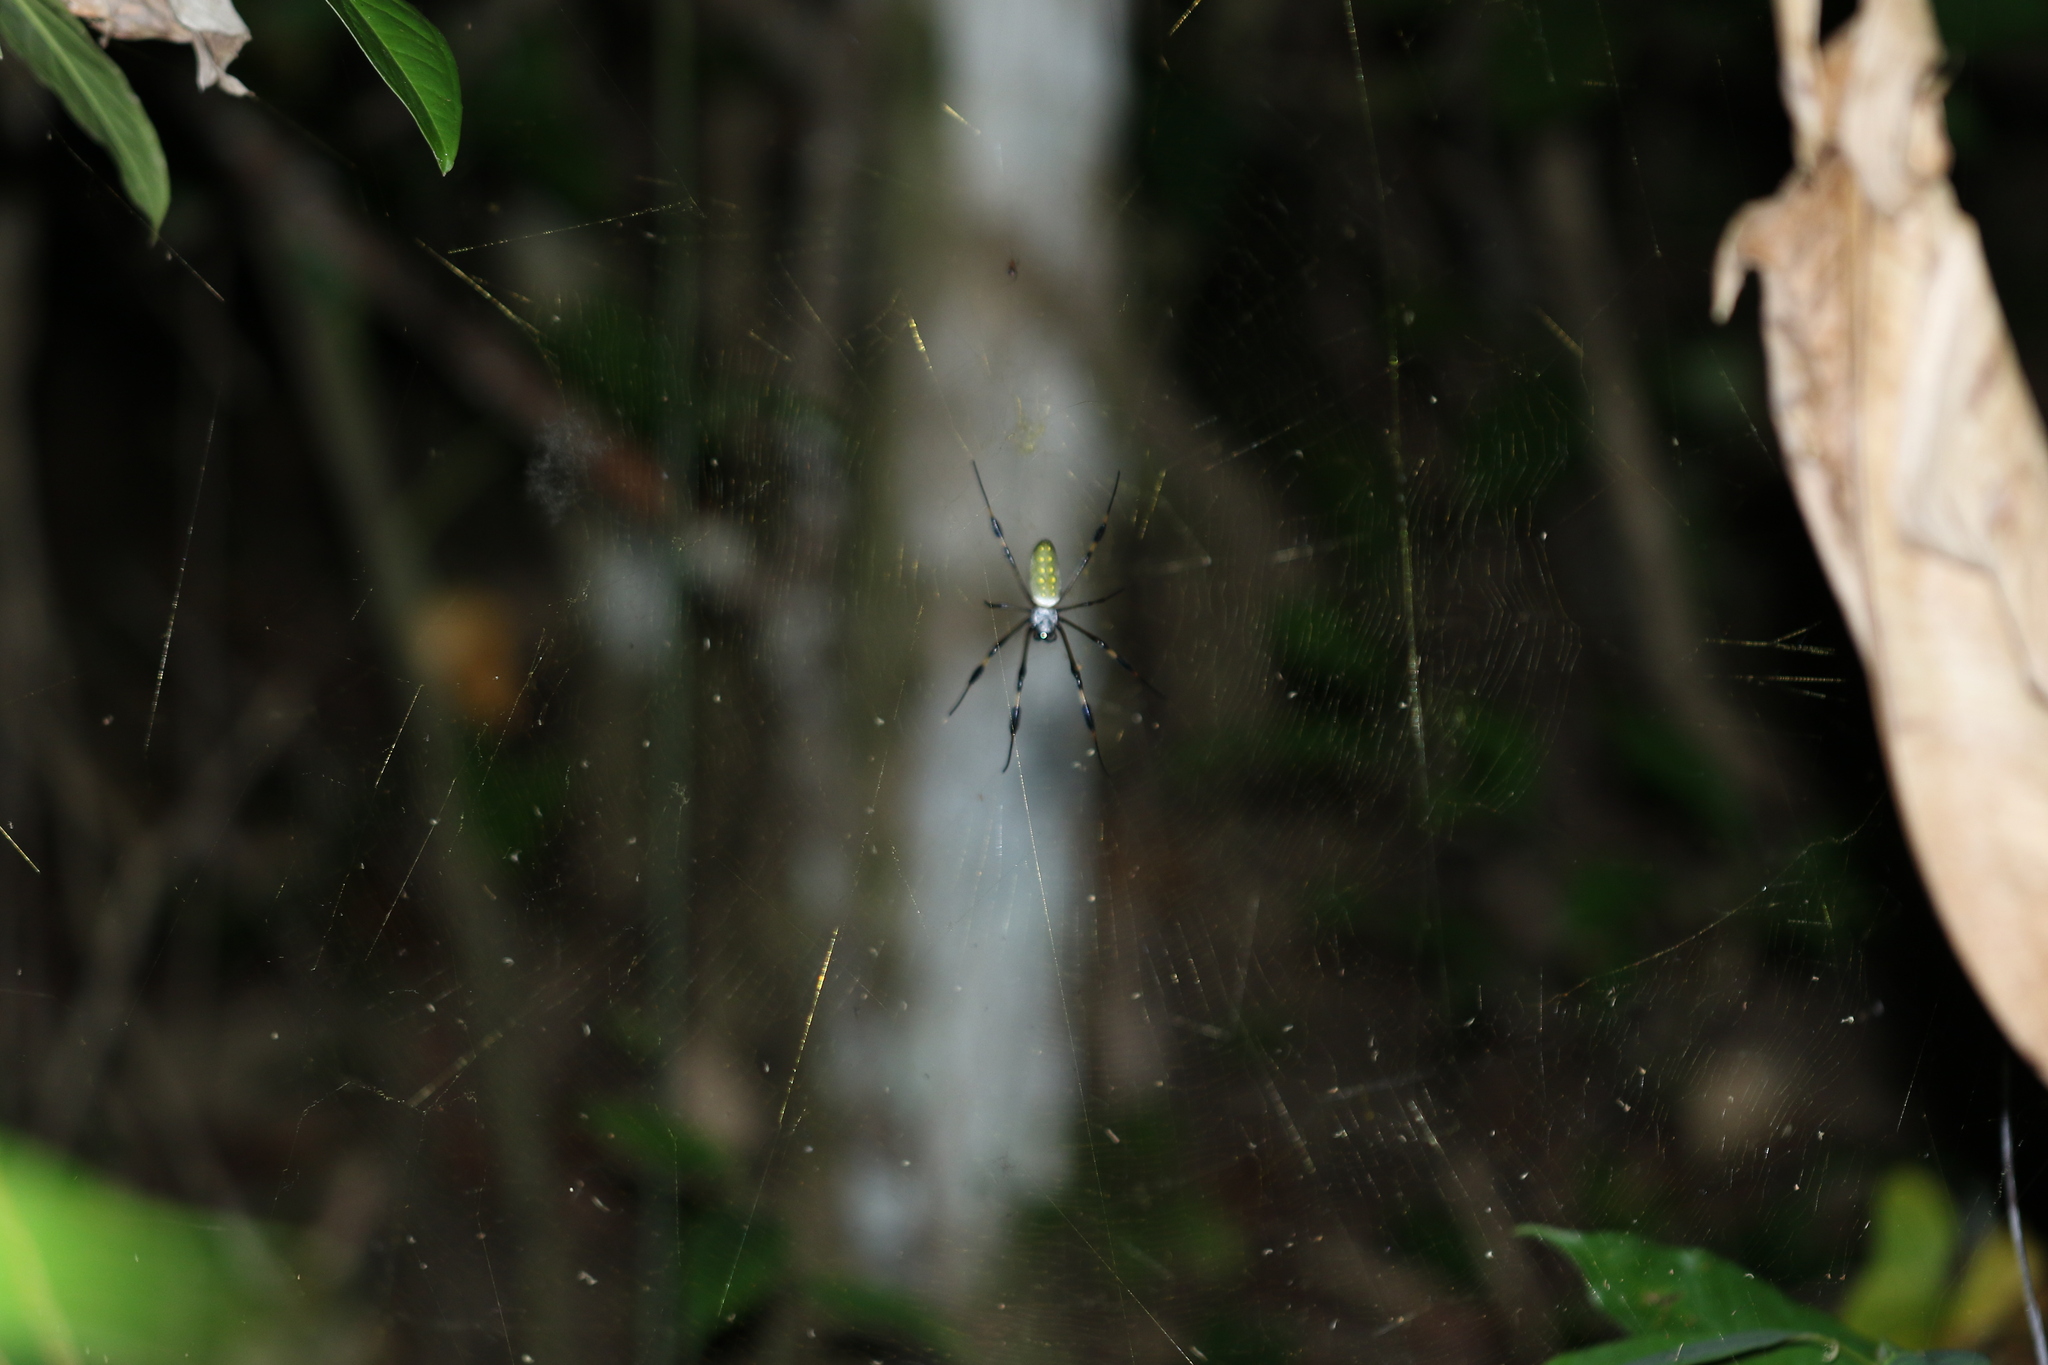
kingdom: Animalia
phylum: Arthropoda
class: Arachnida
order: Araneae
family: Araneidae
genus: Trichonephila
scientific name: Trichonephila clavipes
